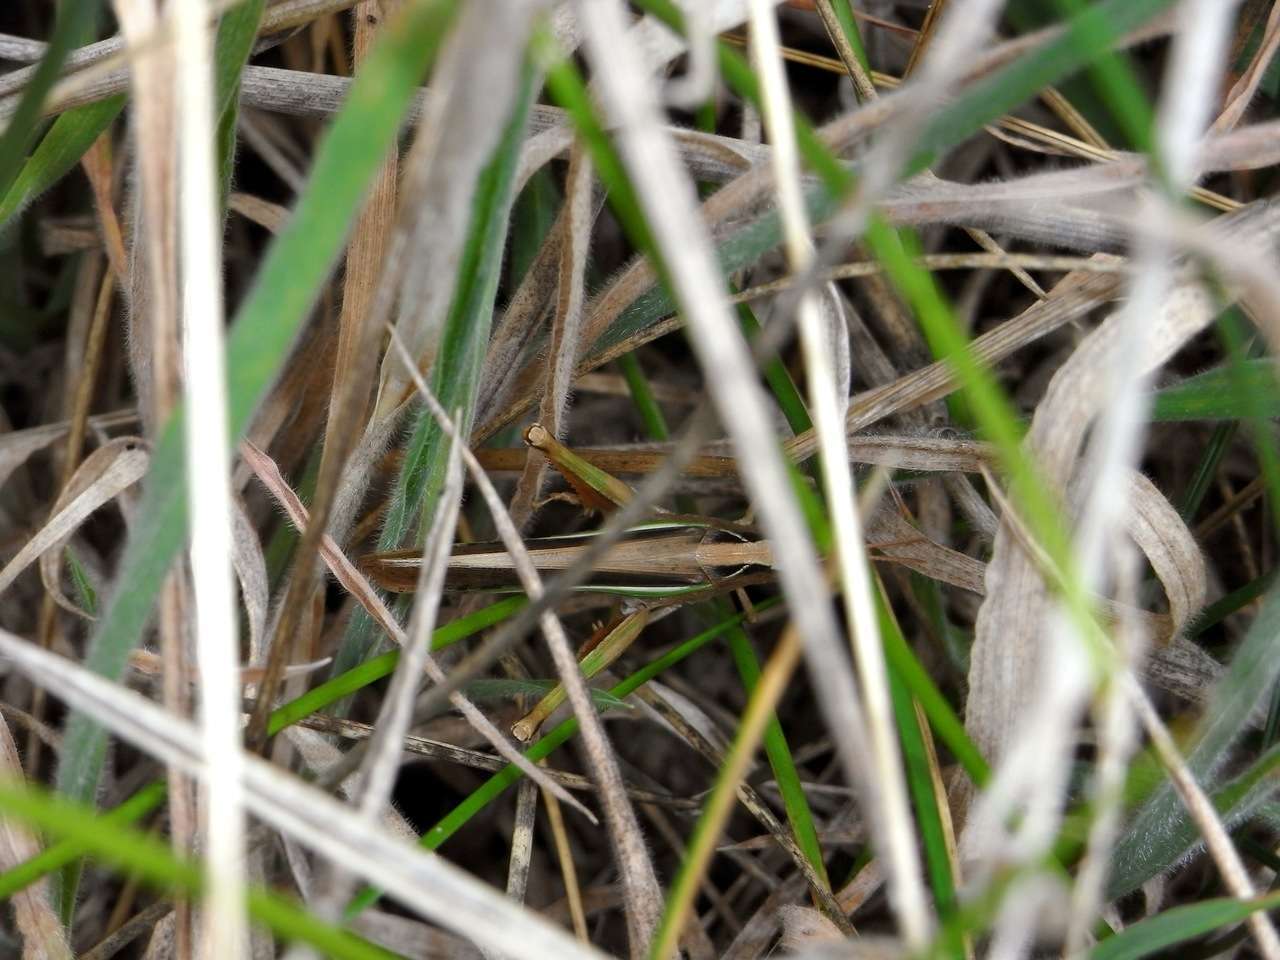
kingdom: Animalia
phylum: Arthropoda
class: Insecta
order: Orthoptera
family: Acrididae
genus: Schizobothrus
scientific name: Schizobothrus flavovittatus
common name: Disappearing grasshopper
